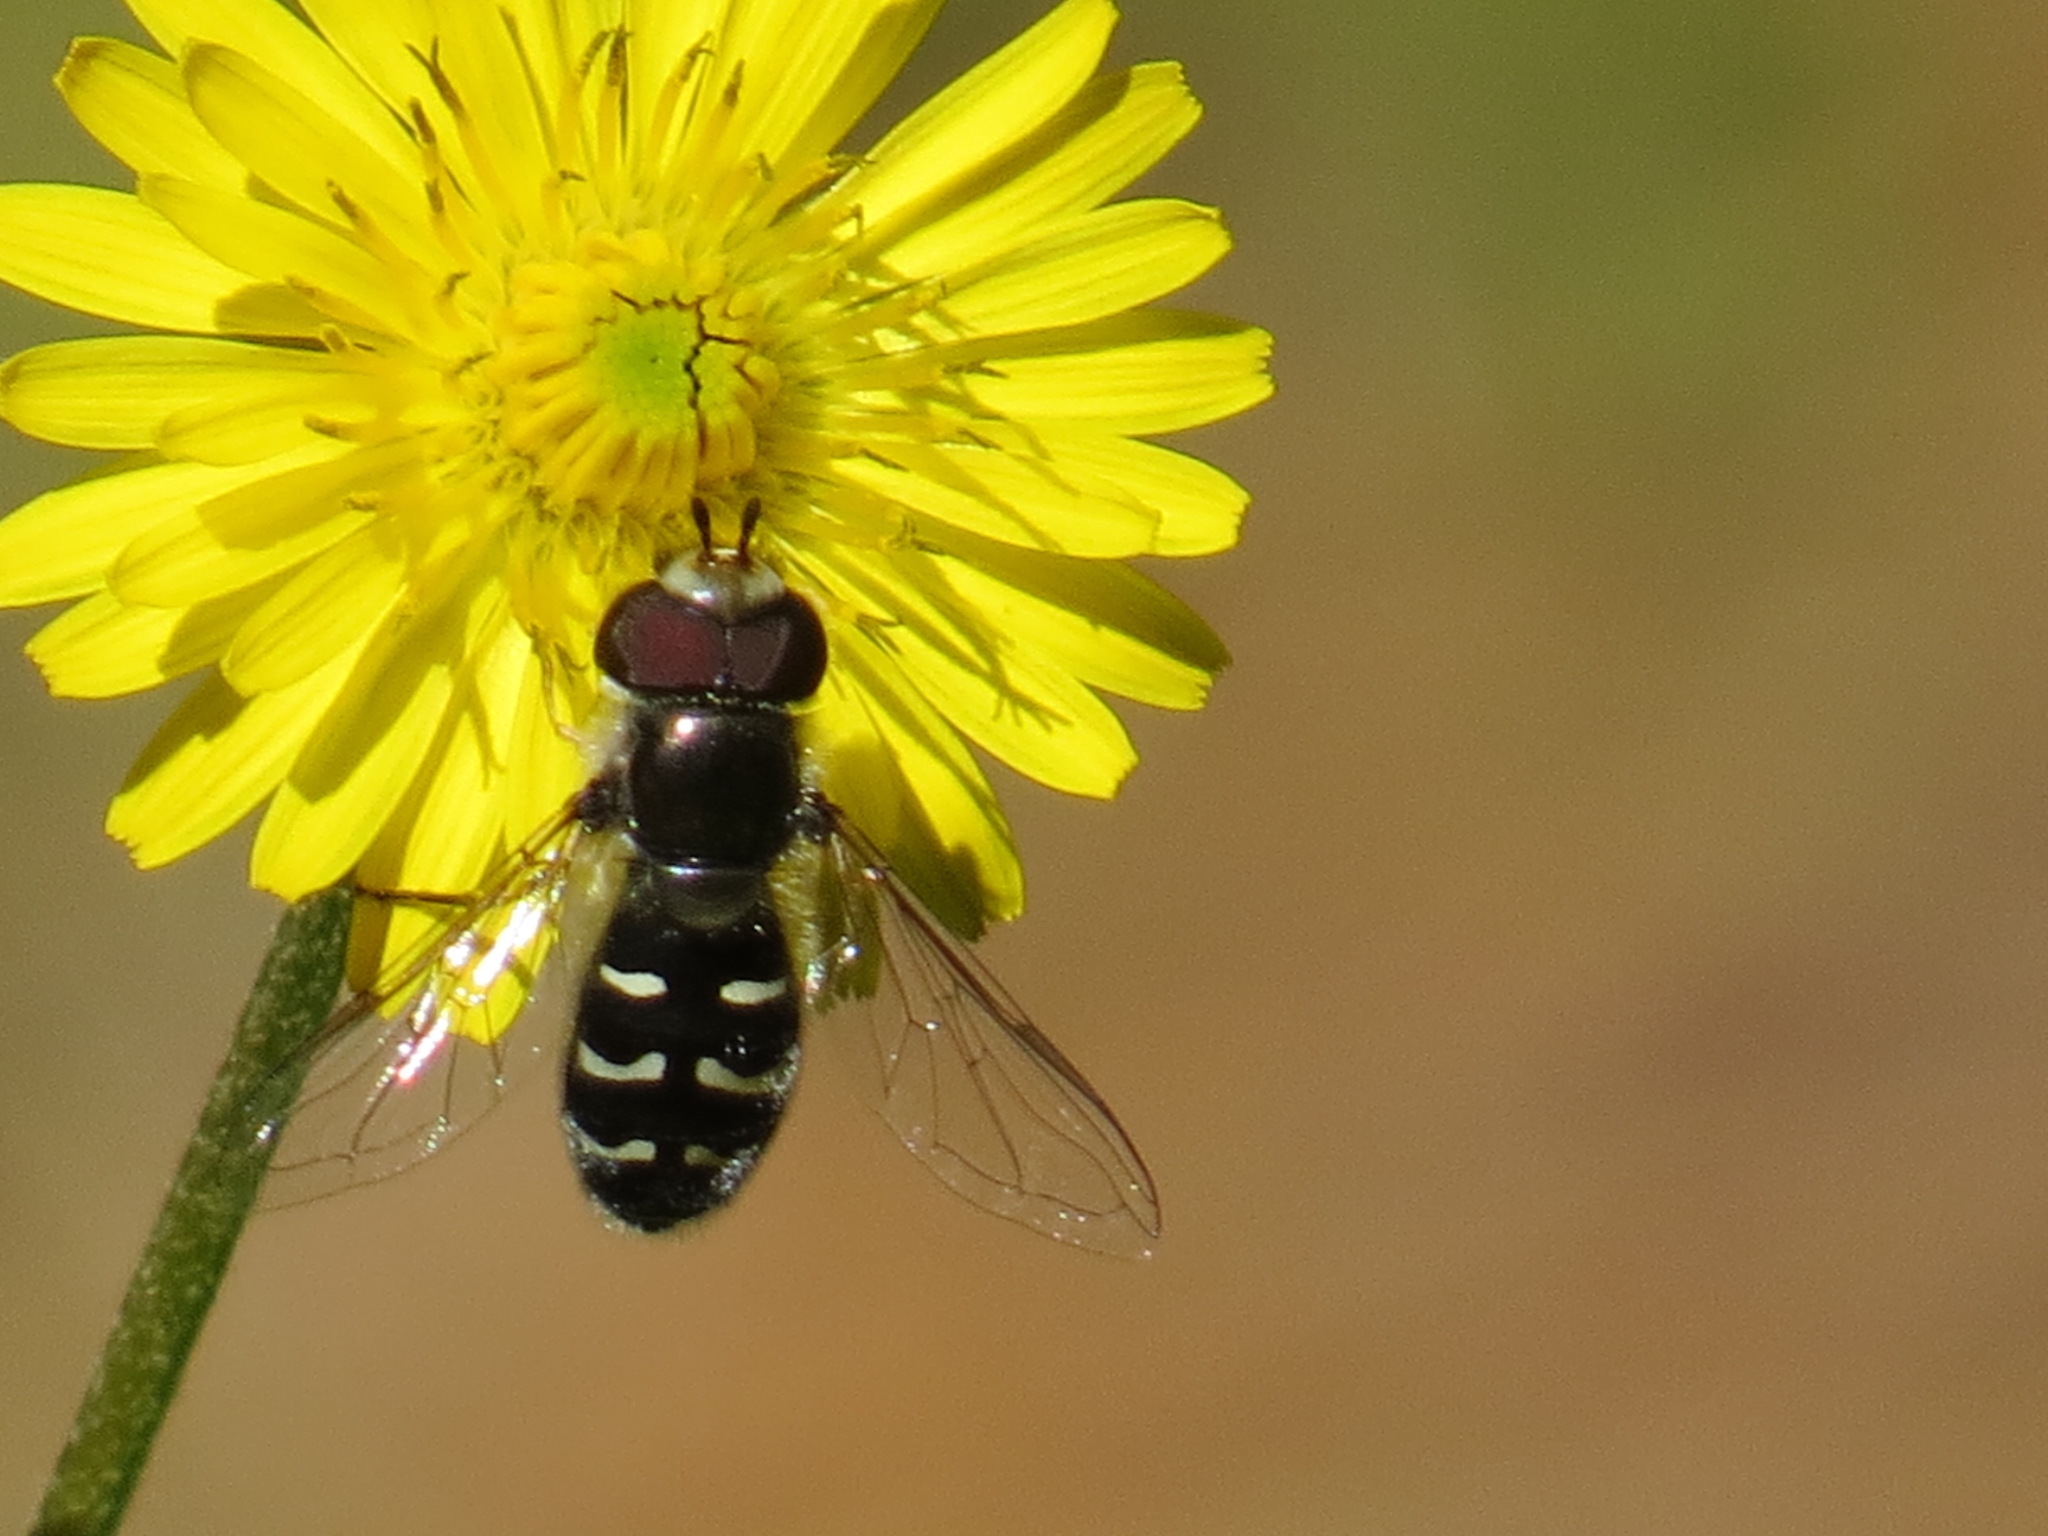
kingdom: Animalia
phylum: Arthropoda
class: Insecta
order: Diptera
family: Syrphidae
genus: Scaeva
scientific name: Scaeva affinis
